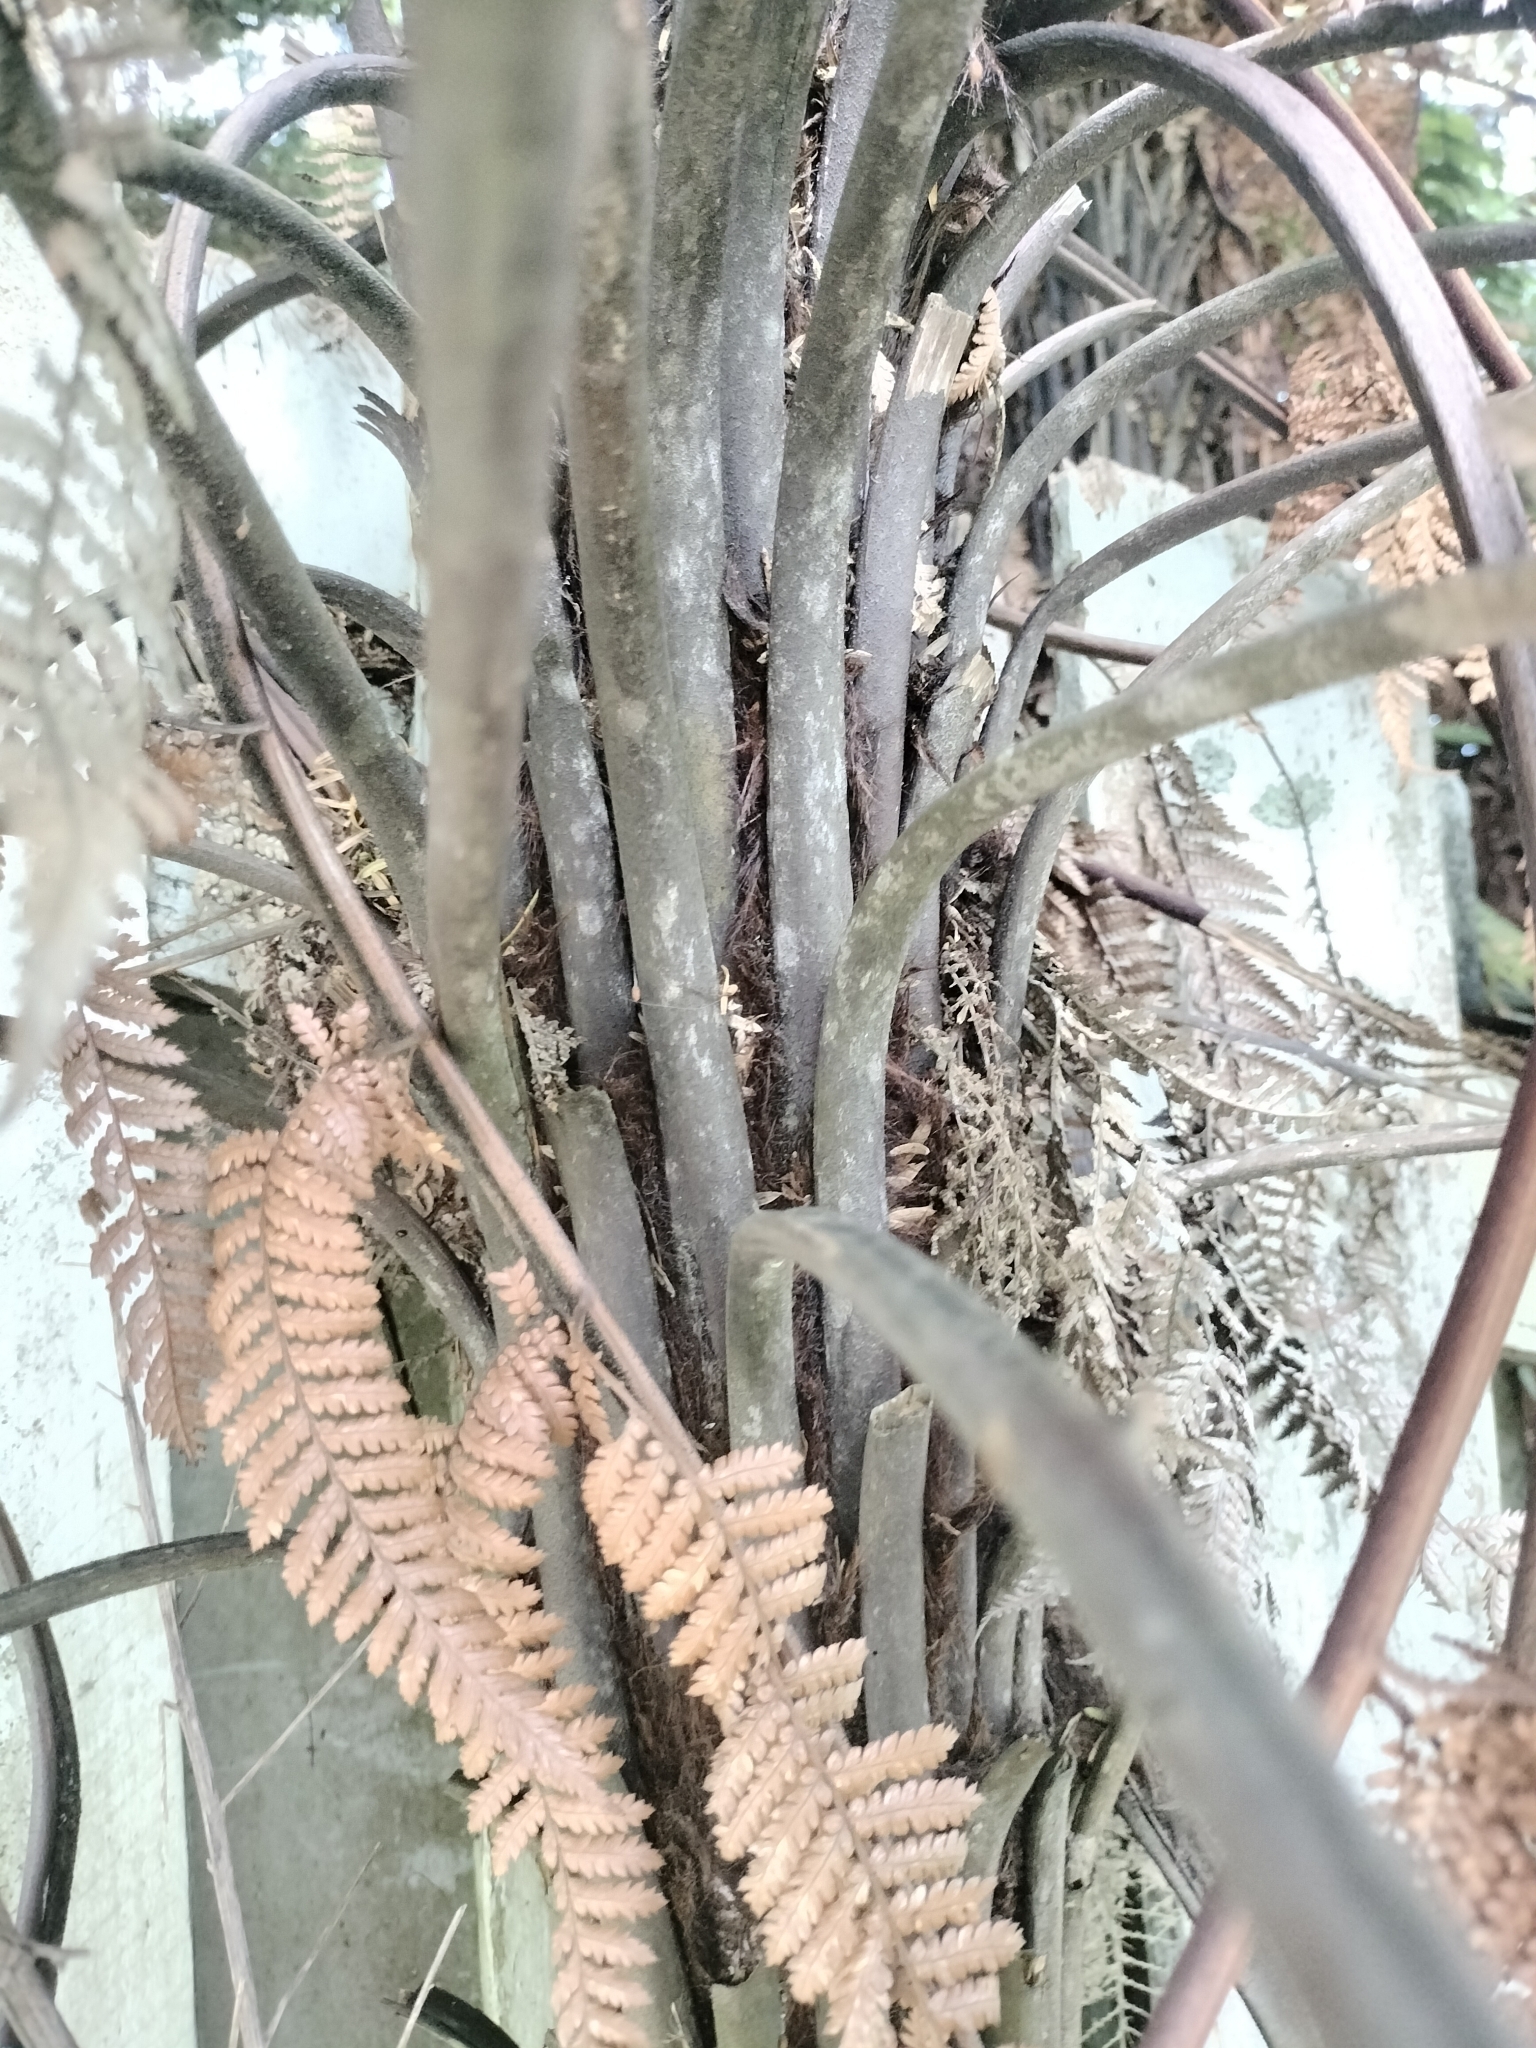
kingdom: Plantae
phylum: Tracheophyta
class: Polypodiopsida
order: Cyatheales
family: Dicksoniaceae
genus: Dicksonia
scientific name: Dicksonia squarrosa
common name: Hard treefern
